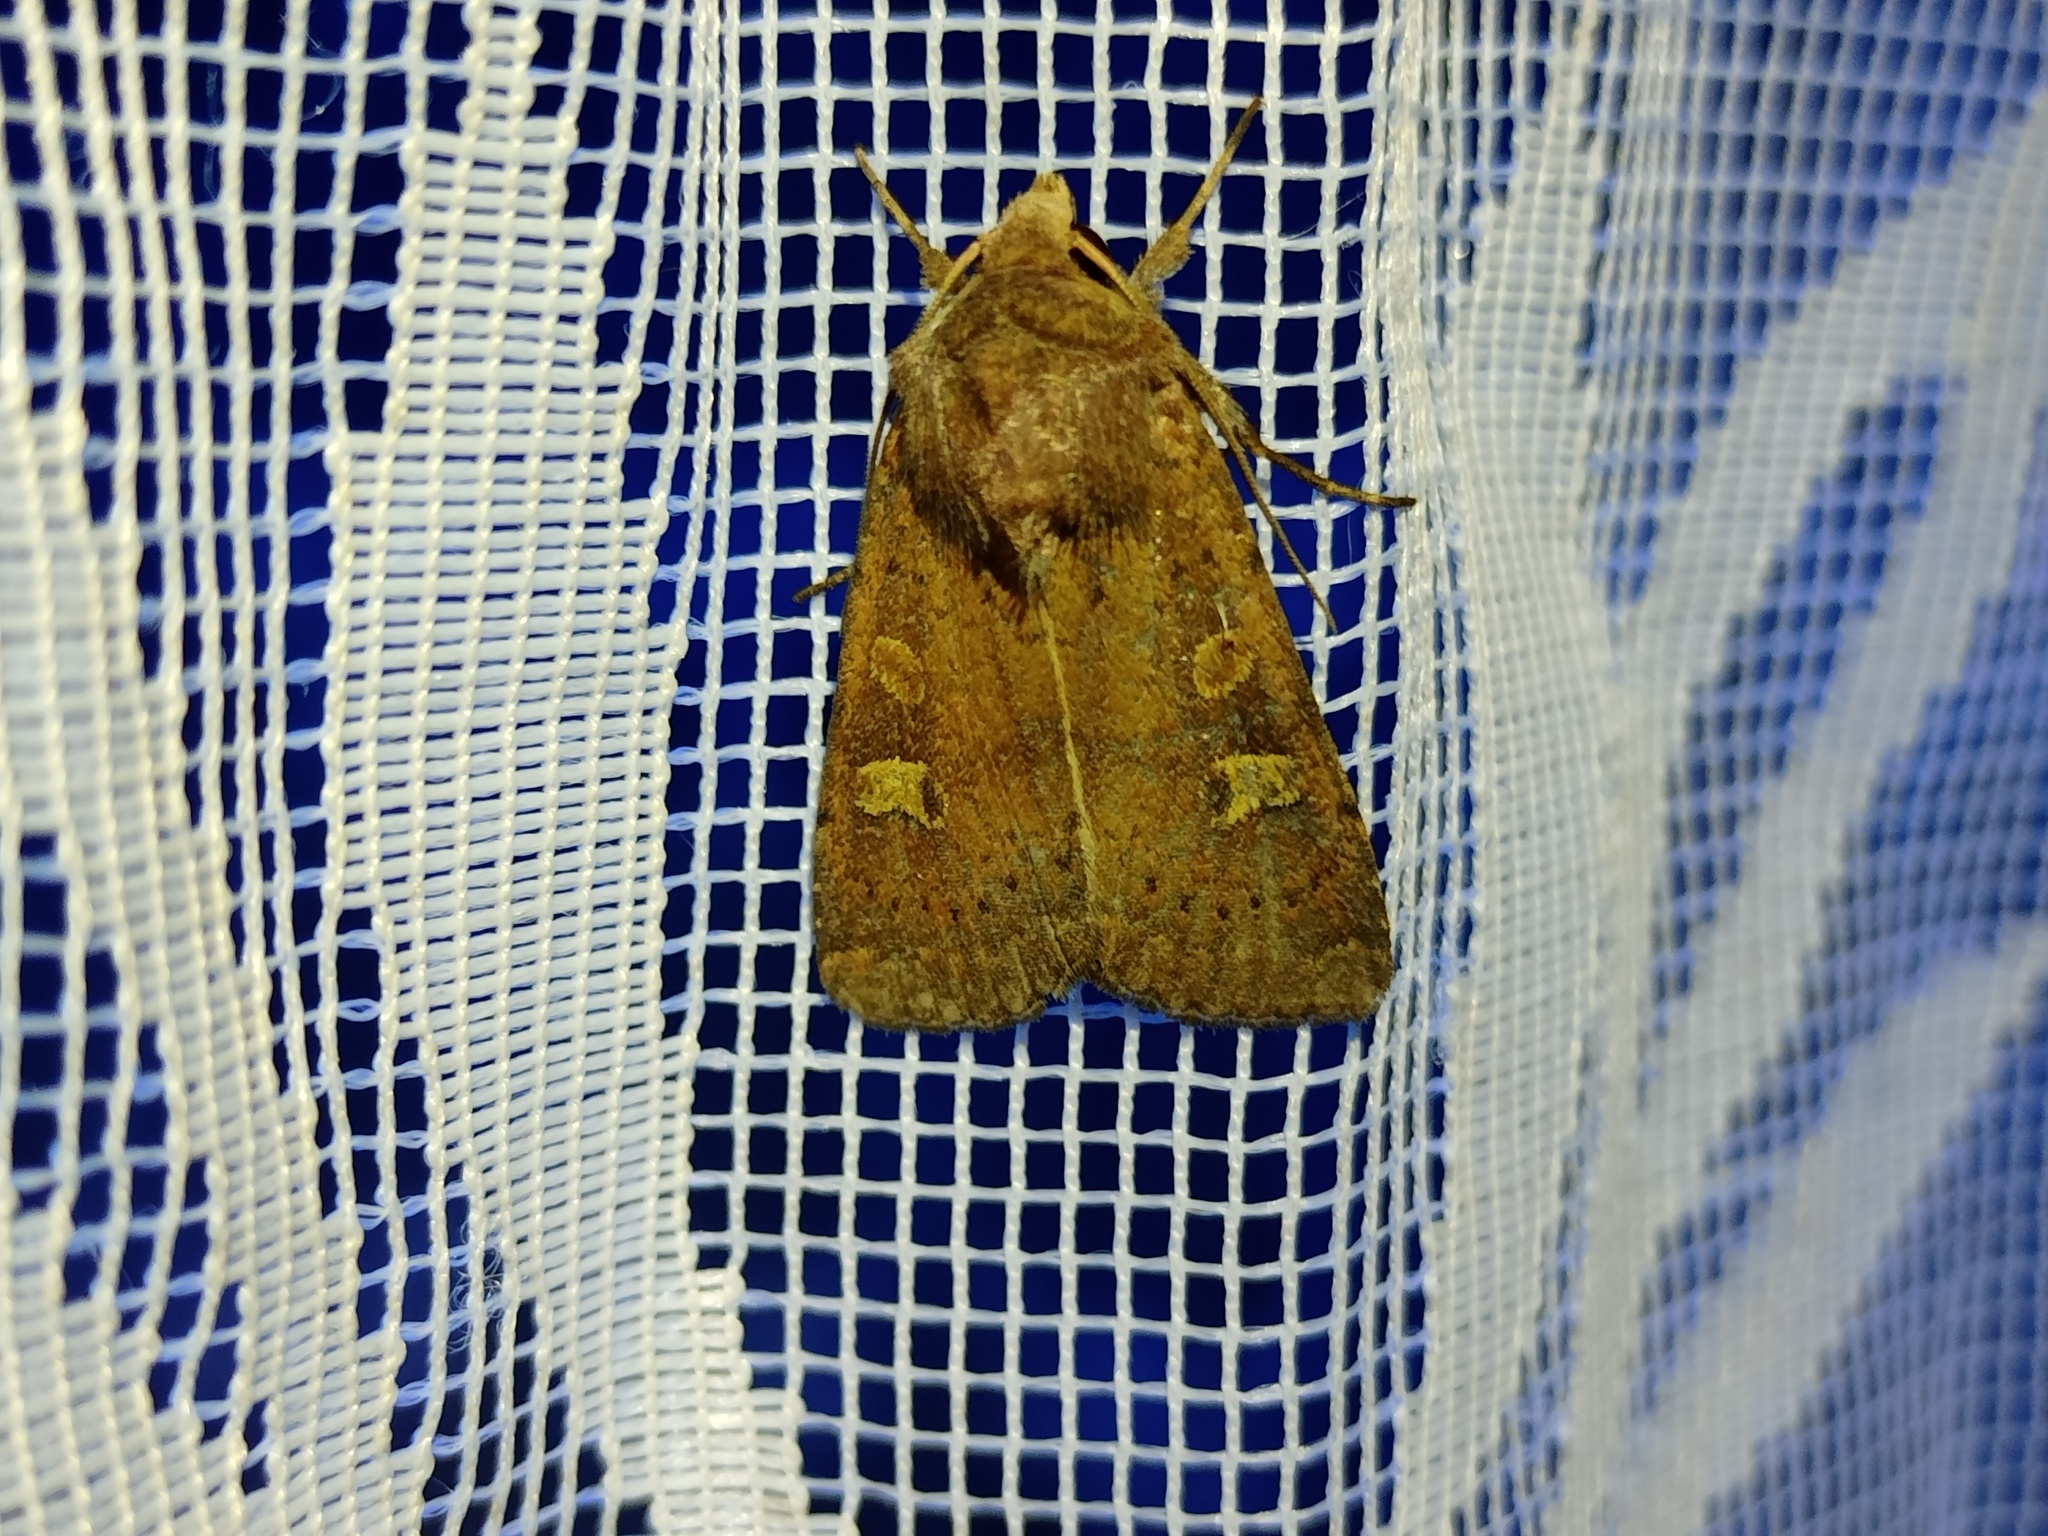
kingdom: Animalia
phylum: Arthropoda
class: Insecta
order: Lepidoptera
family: Noctuidae
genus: Xestia
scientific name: Xestia xanthographa
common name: Square-spot rustic
